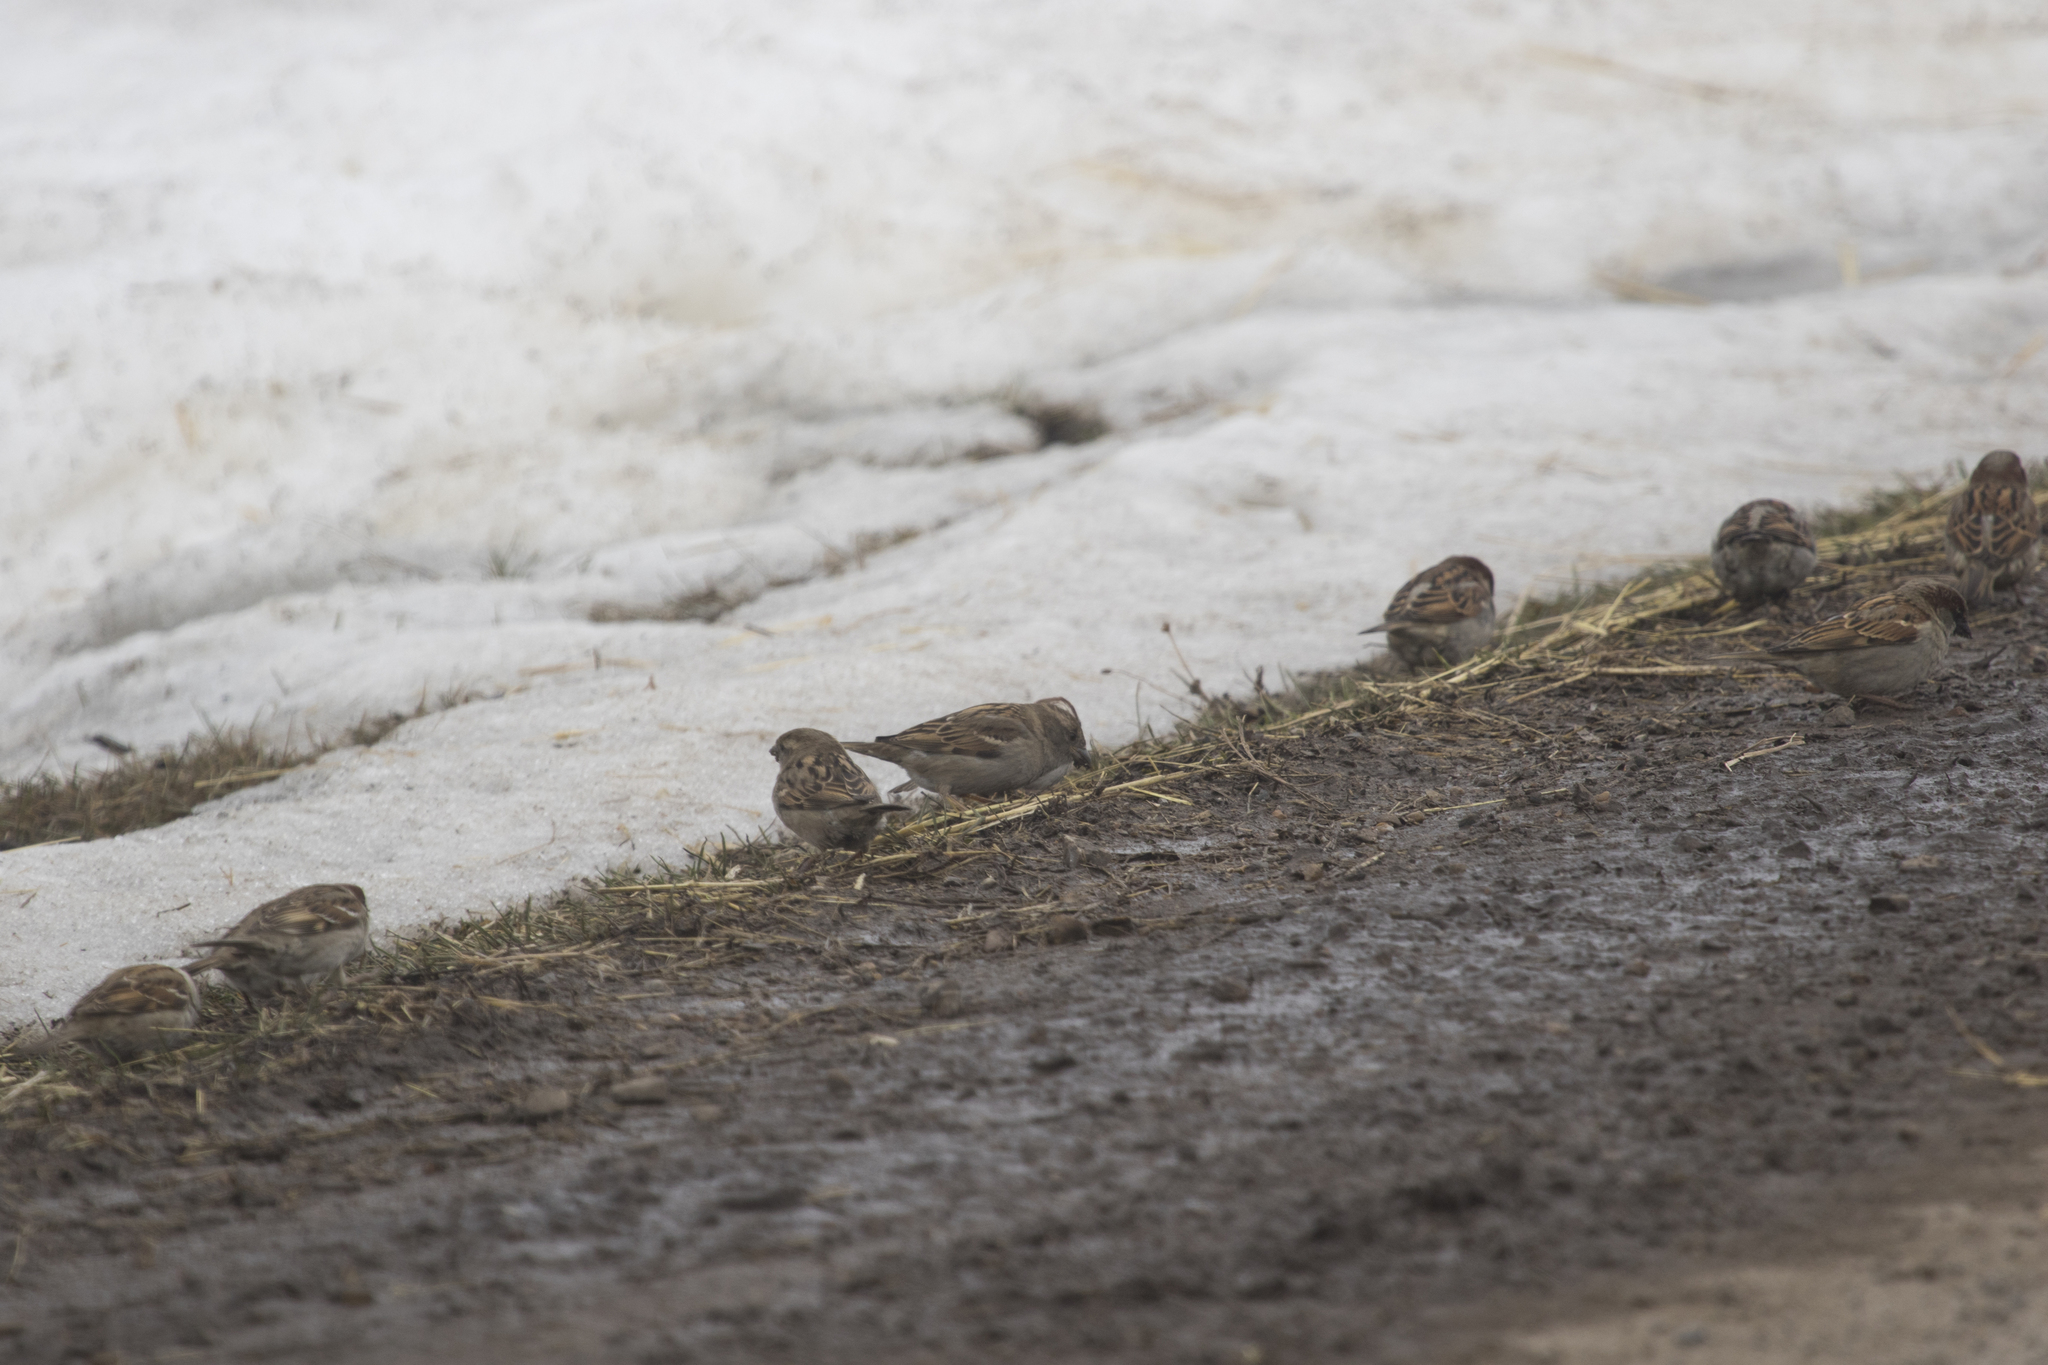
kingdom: Animalia
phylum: Chordata
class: Aves
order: Passeriformes
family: Passeridae
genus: Passer
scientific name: Passer domesticus
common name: House sparrow
